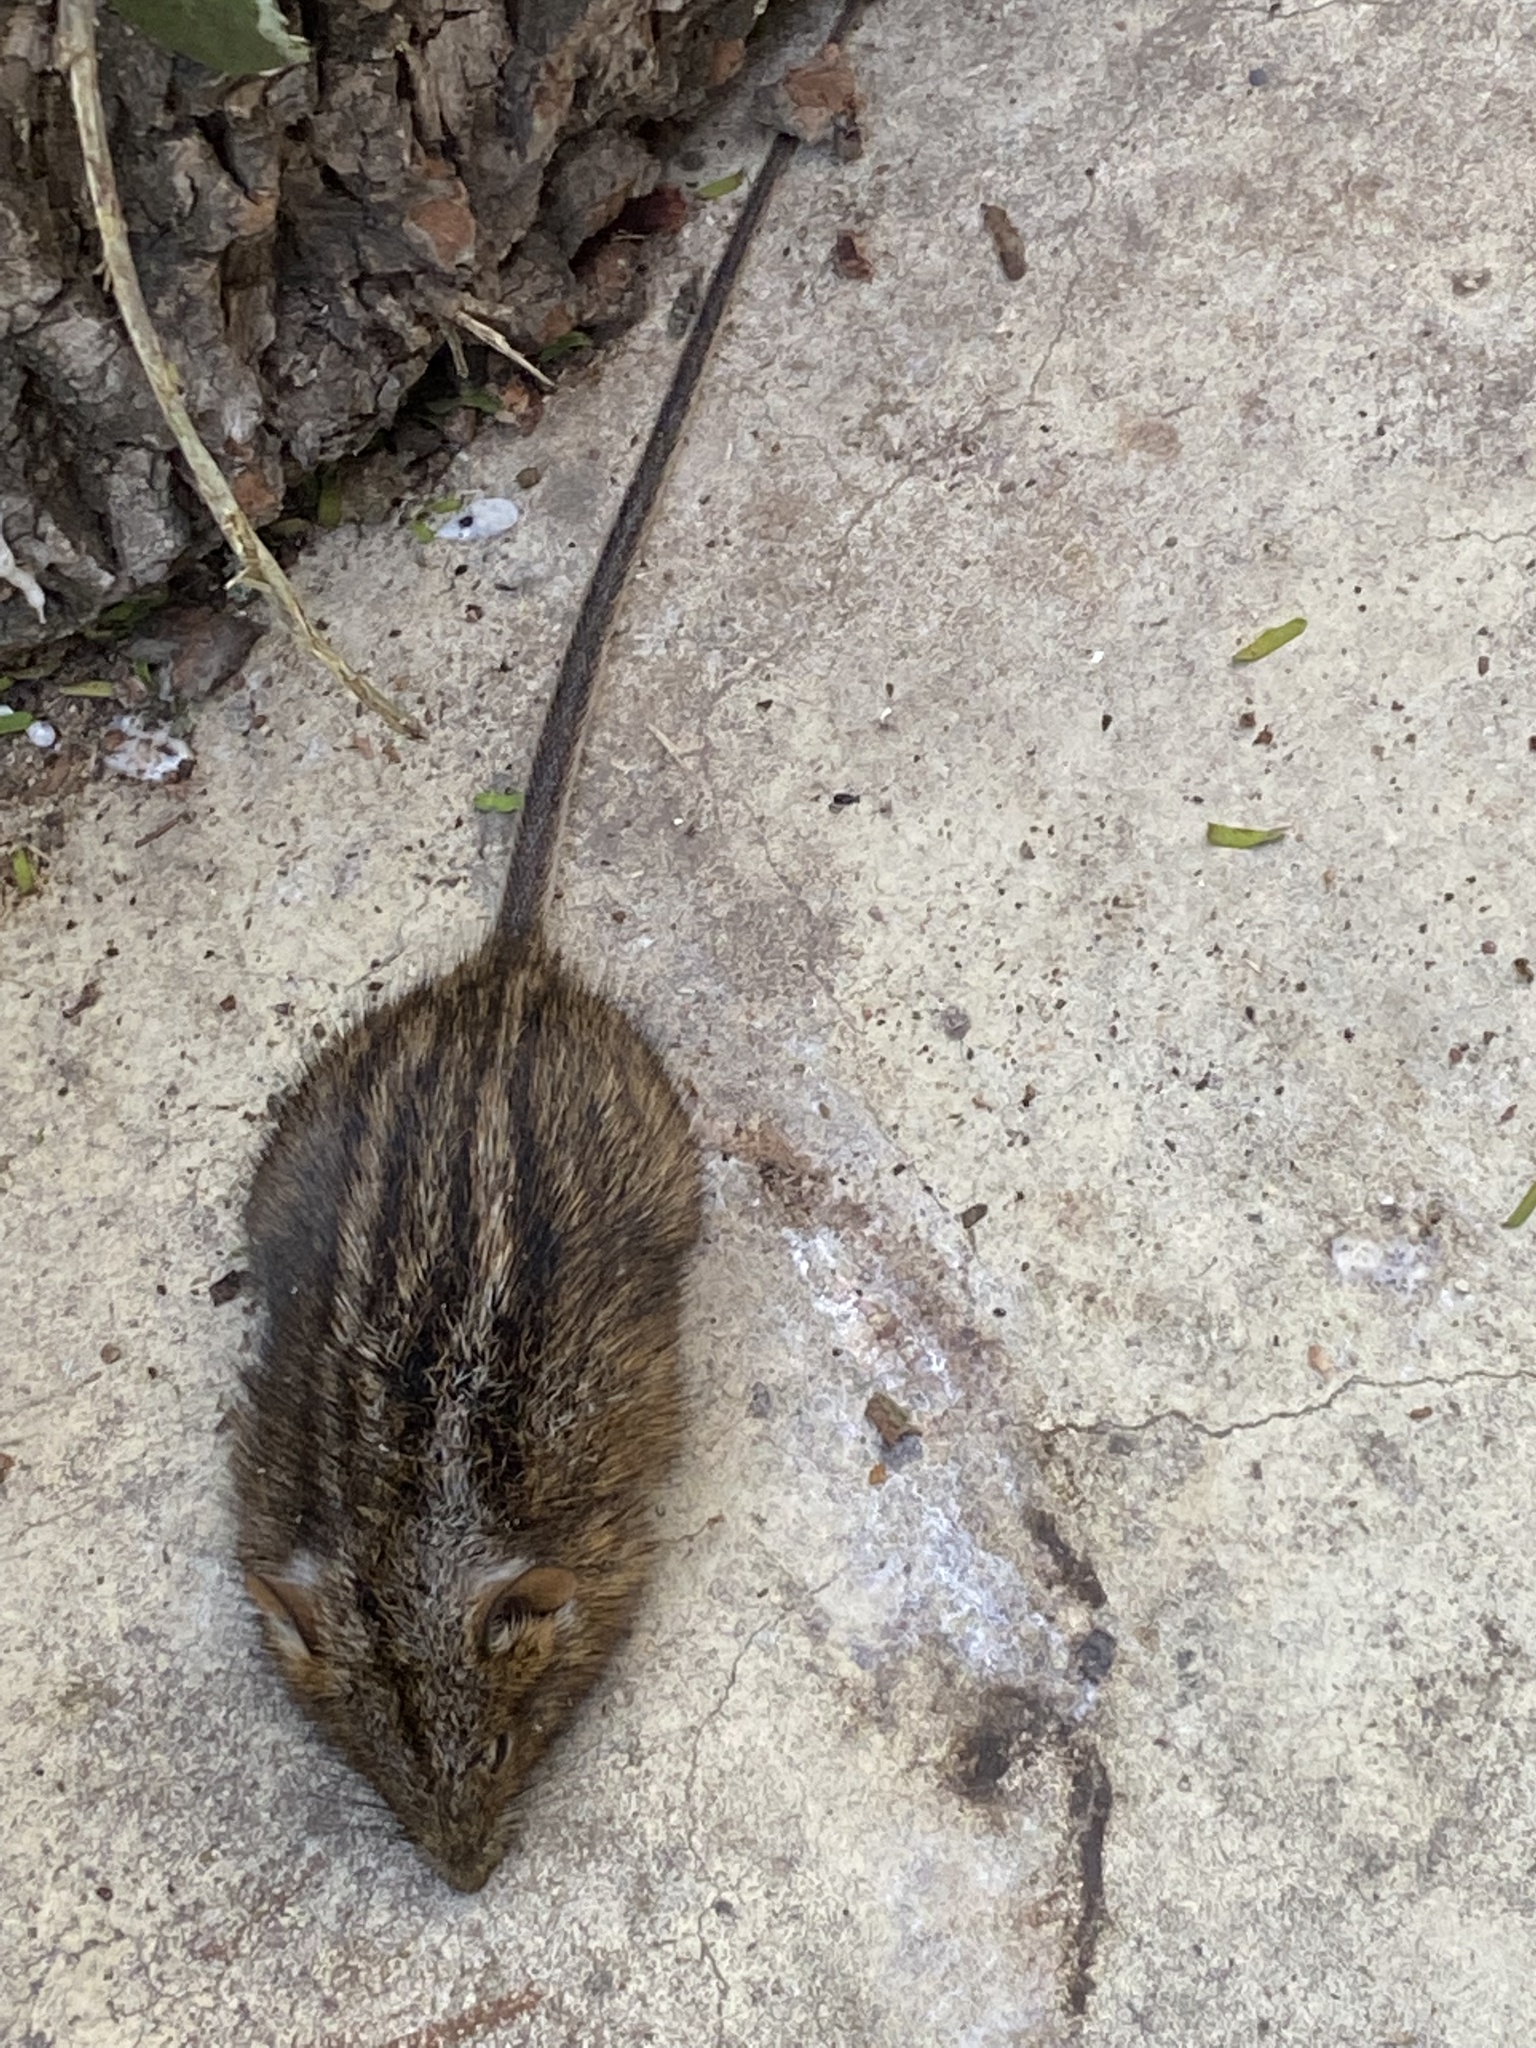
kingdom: Animalia
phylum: Chordata
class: Mammalia
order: Rodentia
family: Muridae
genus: Rhabdomys
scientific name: Rhabdomys pumilio
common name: Xeric four-striped grass rat
